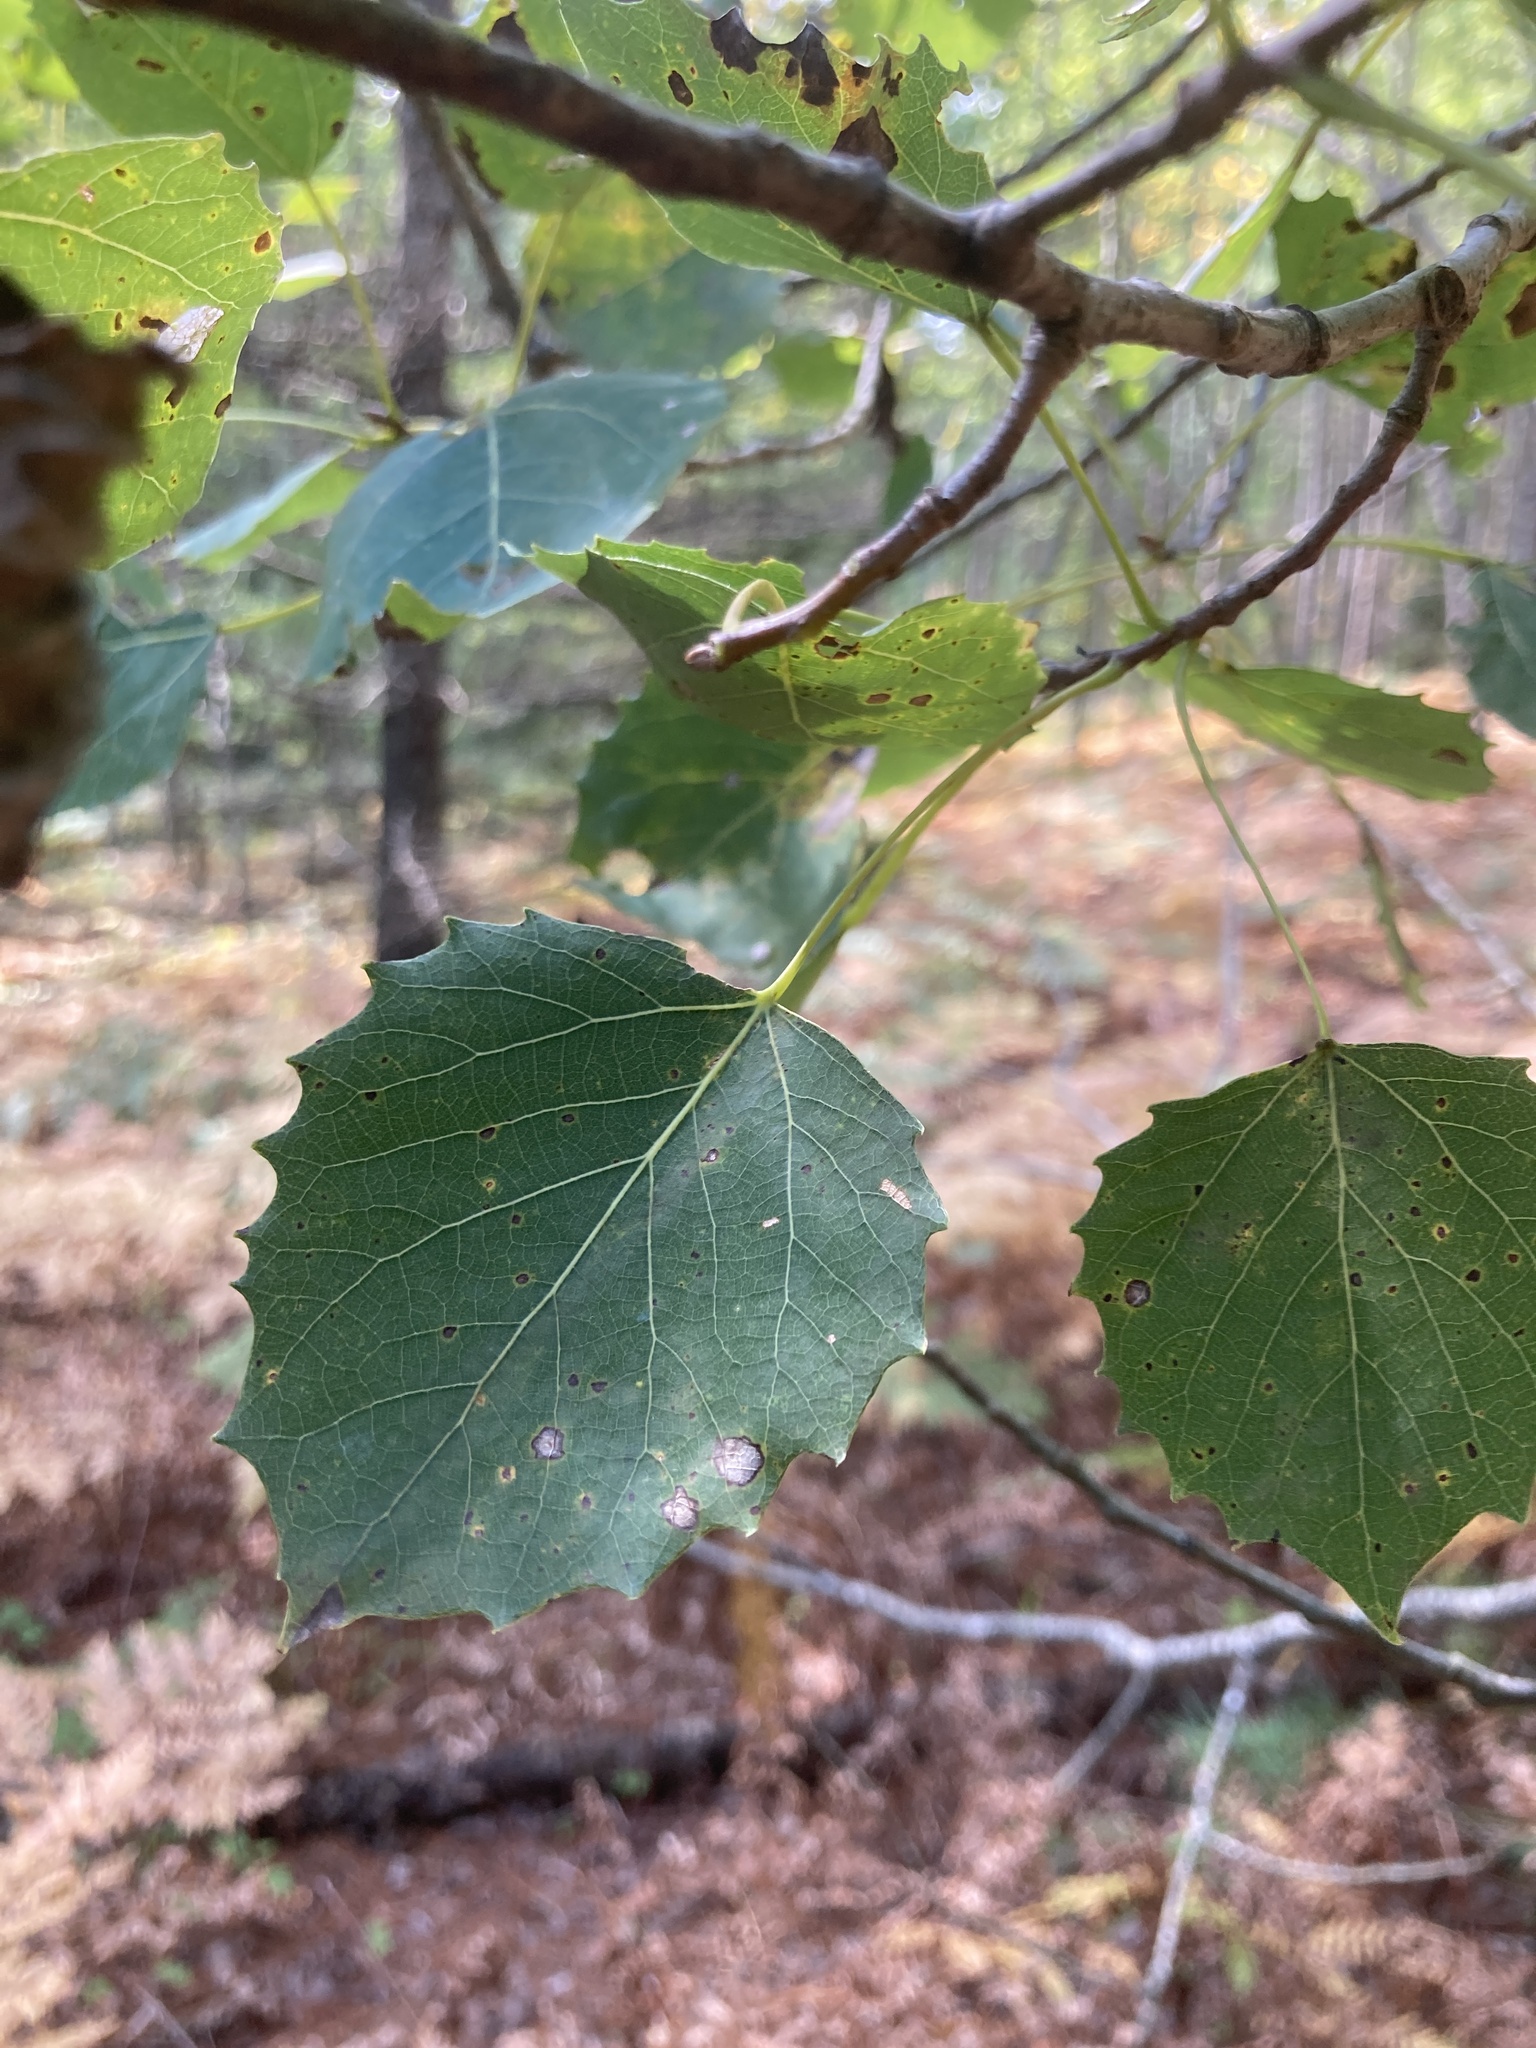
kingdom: Plantae
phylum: Tracheophyta
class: Magnoliopsida
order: Malpighiales
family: Salicaceae
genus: Populus
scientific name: Populus grandidentata
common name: Bigtooth aspen
